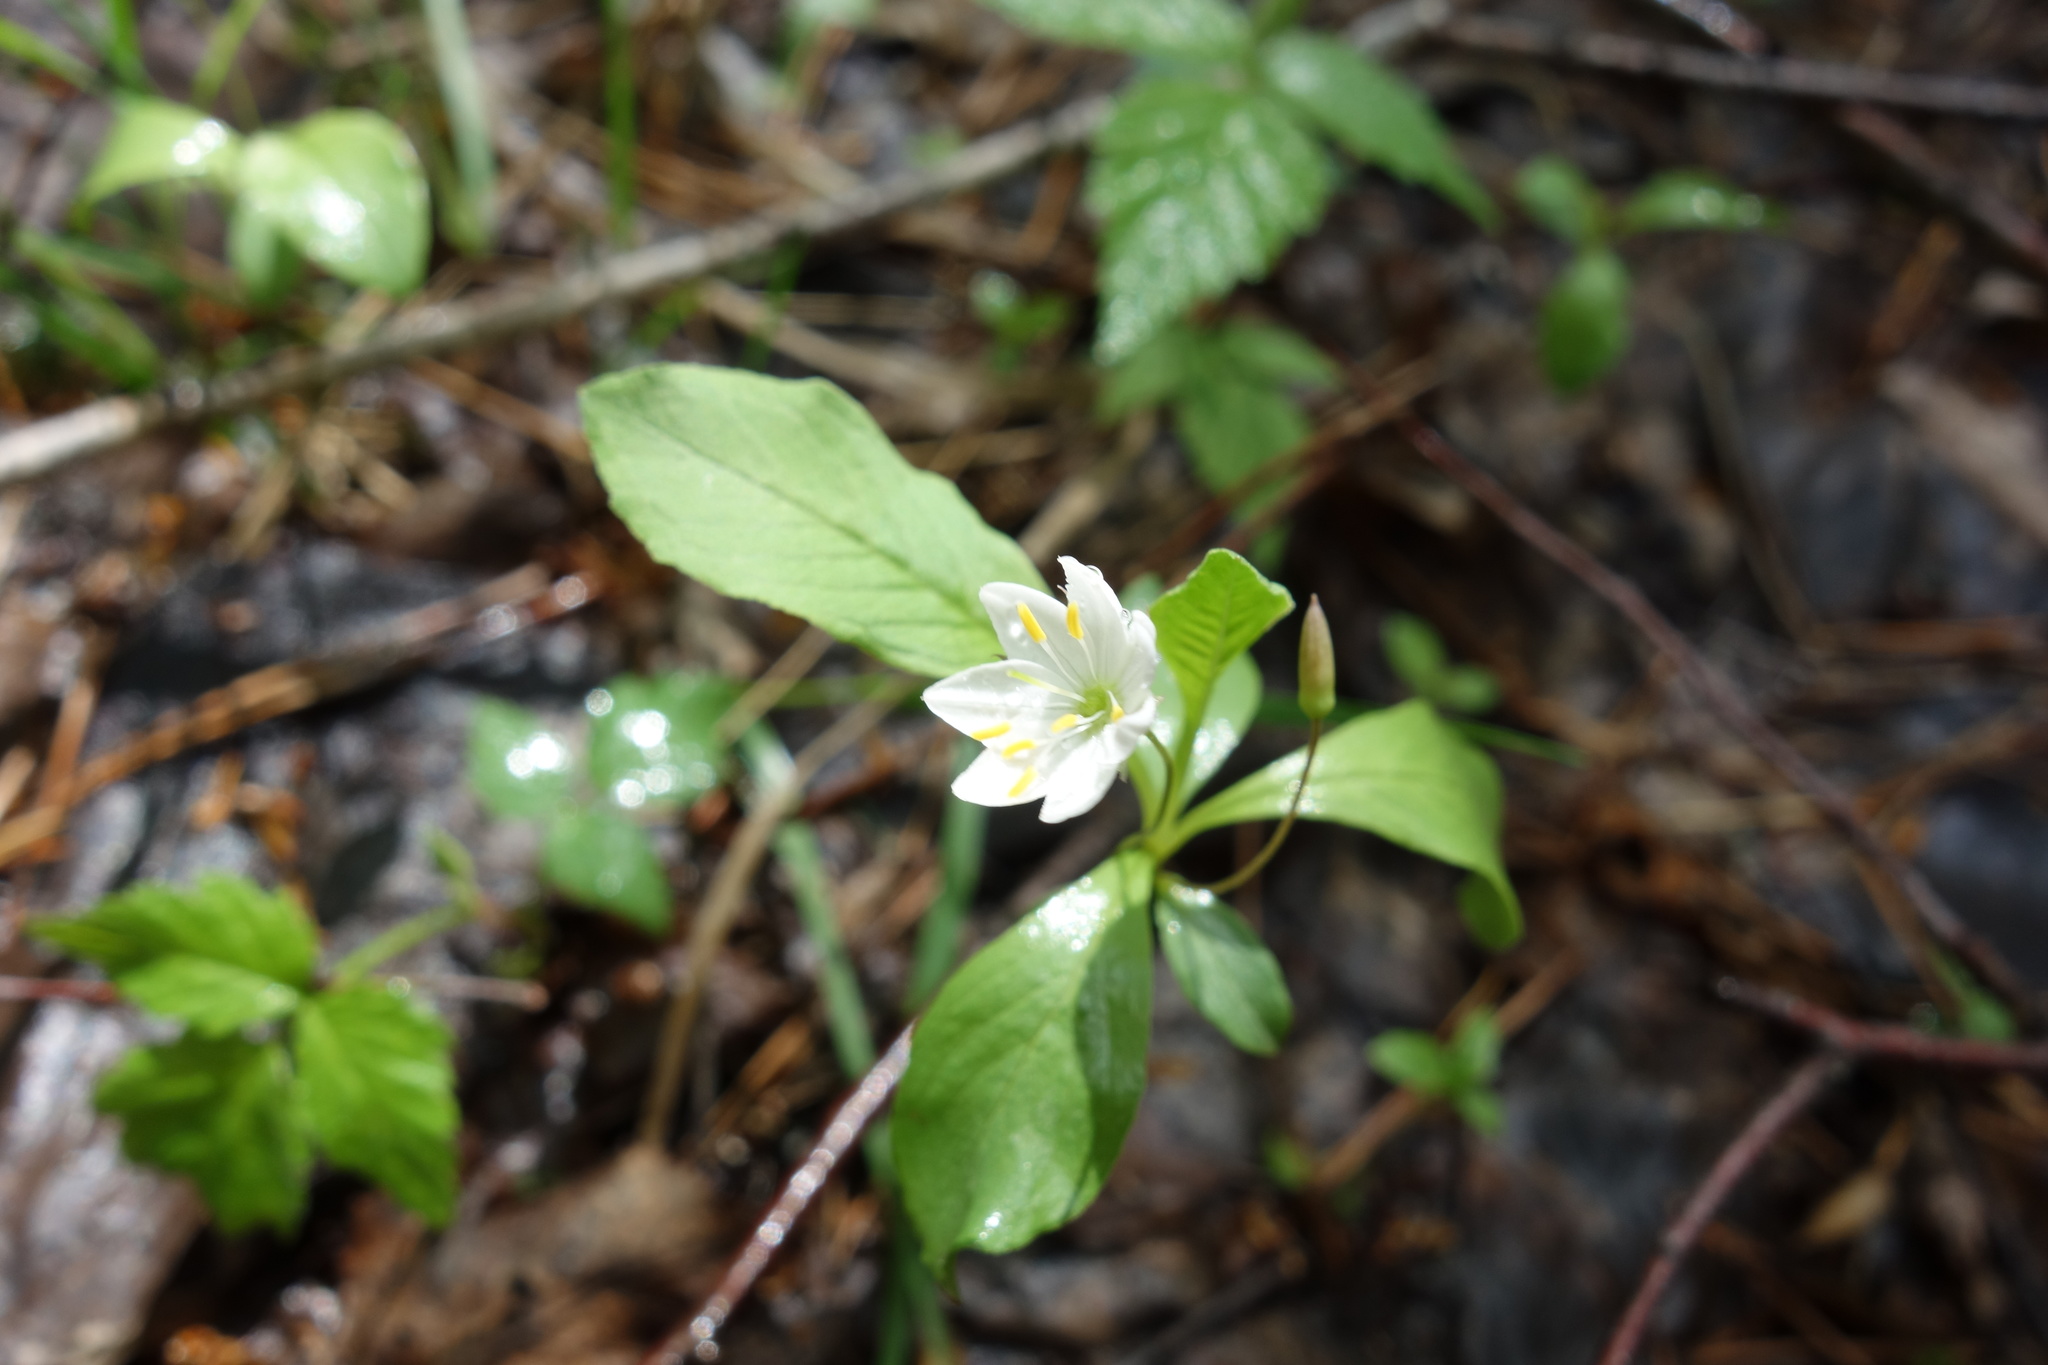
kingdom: Plantae
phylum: Tracheophyta
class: Magnoliopsida
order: Ericales
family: Primulaceae
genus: Lysimachia
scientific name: Lysimachia europaea
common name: Arctic starflower
